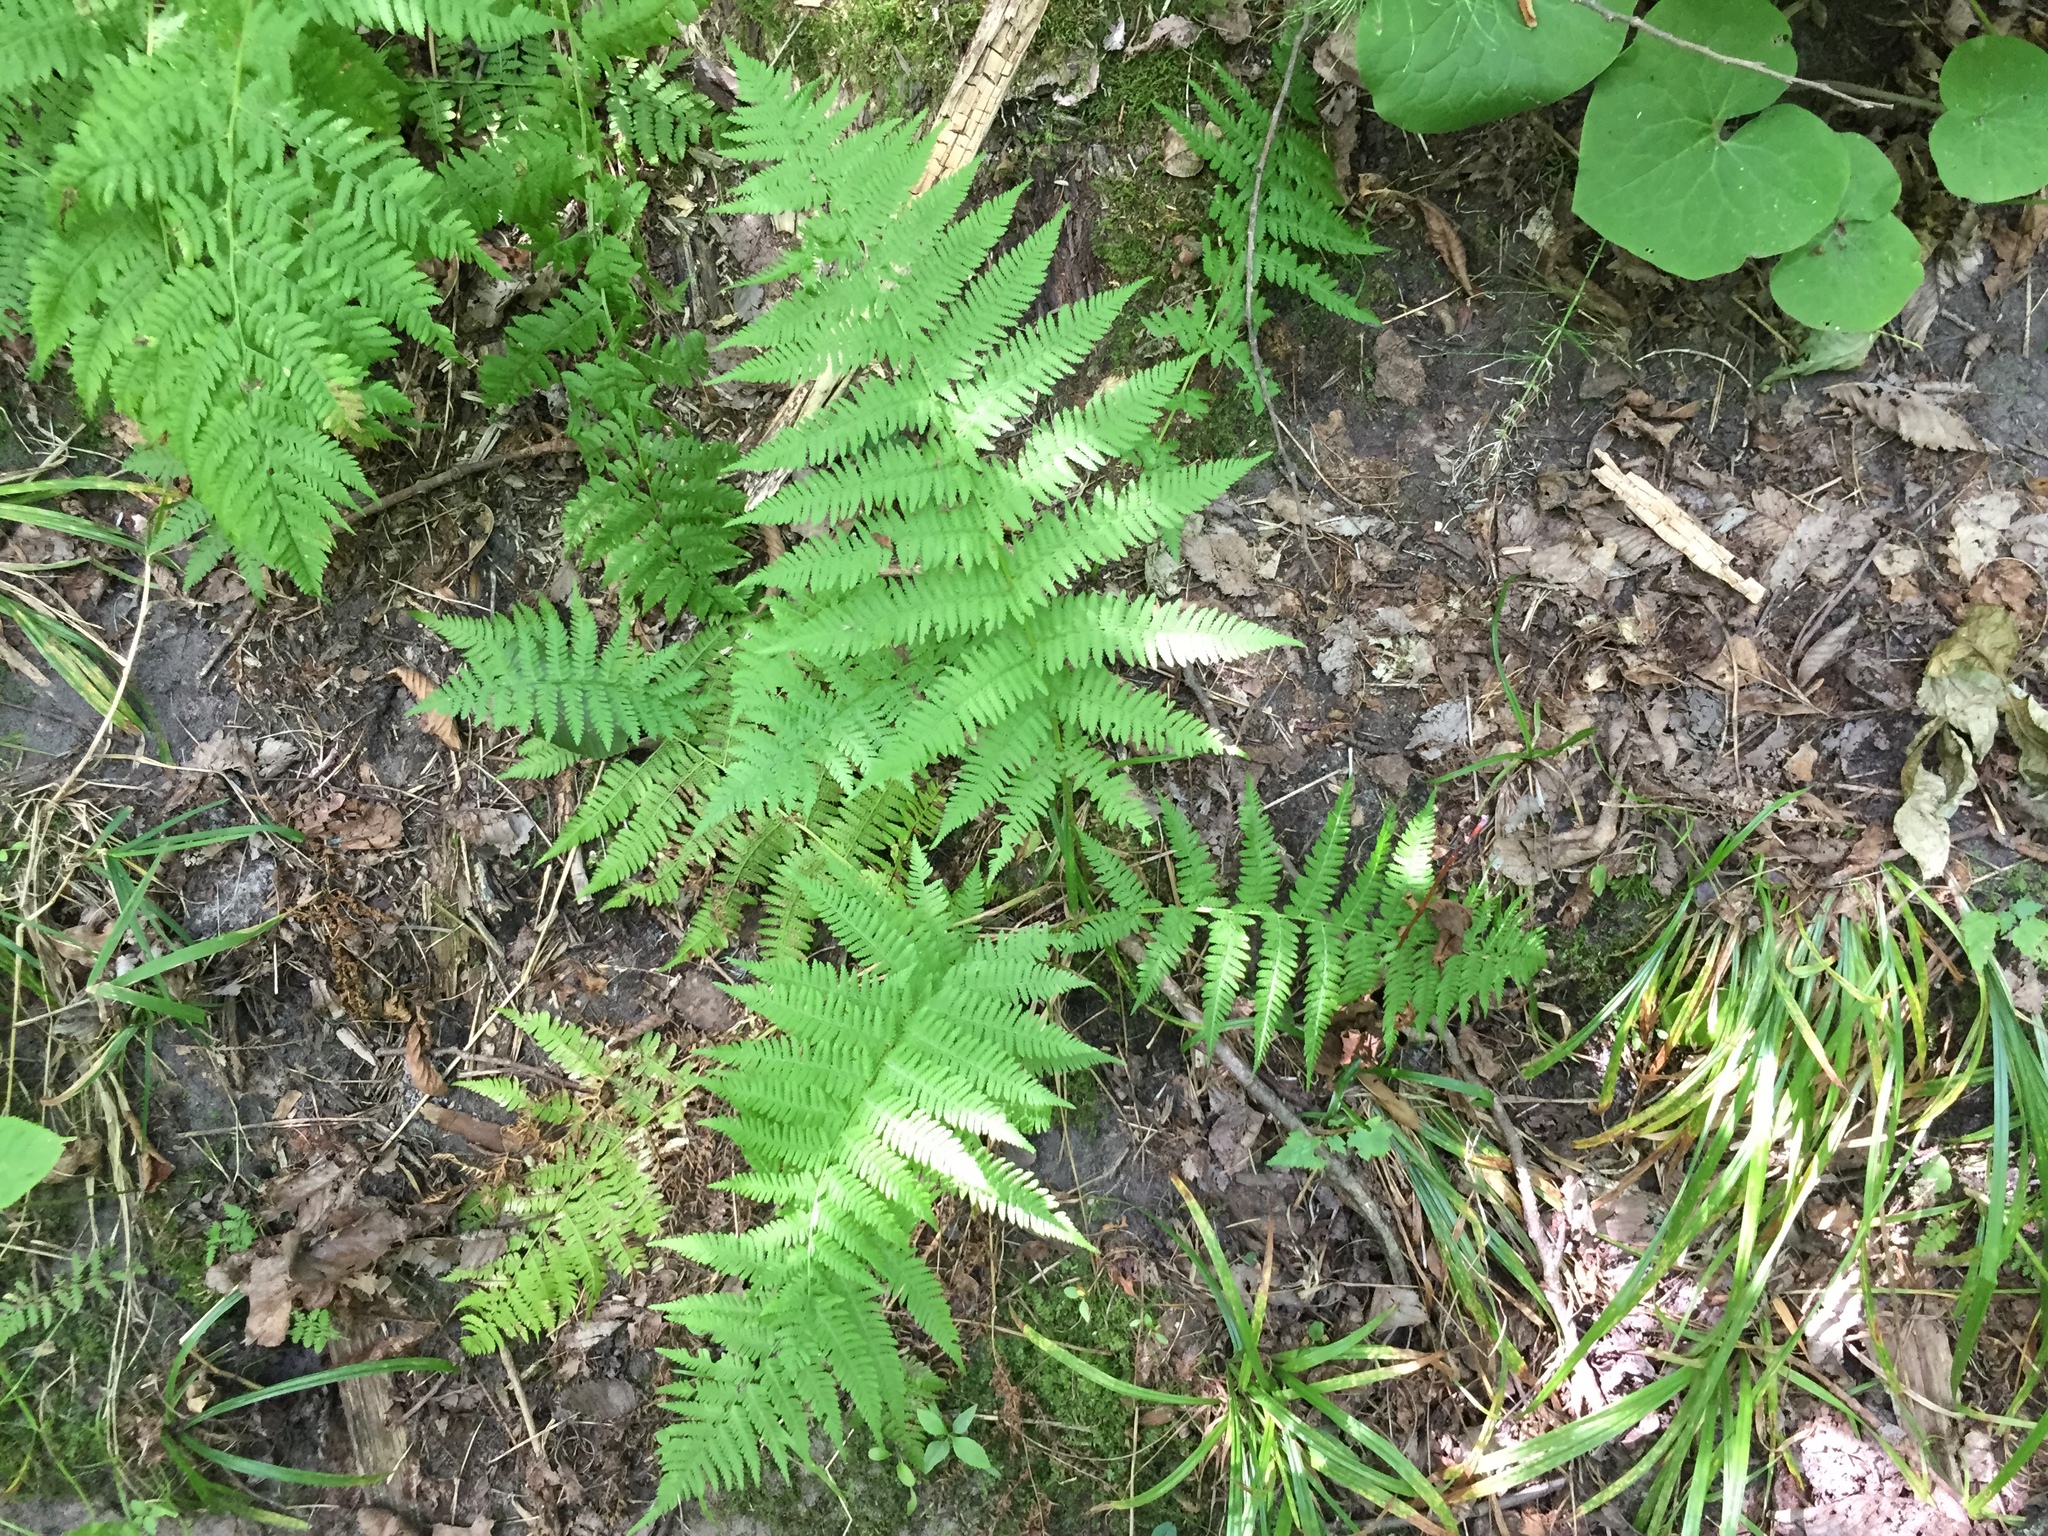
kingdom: Plantae
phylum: Tracheophyta
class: Polypodiopsida
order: Polypodiales
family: Athyriaceae
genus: Athyrium
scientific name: Athyrium angustum
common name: Northern lady fern
